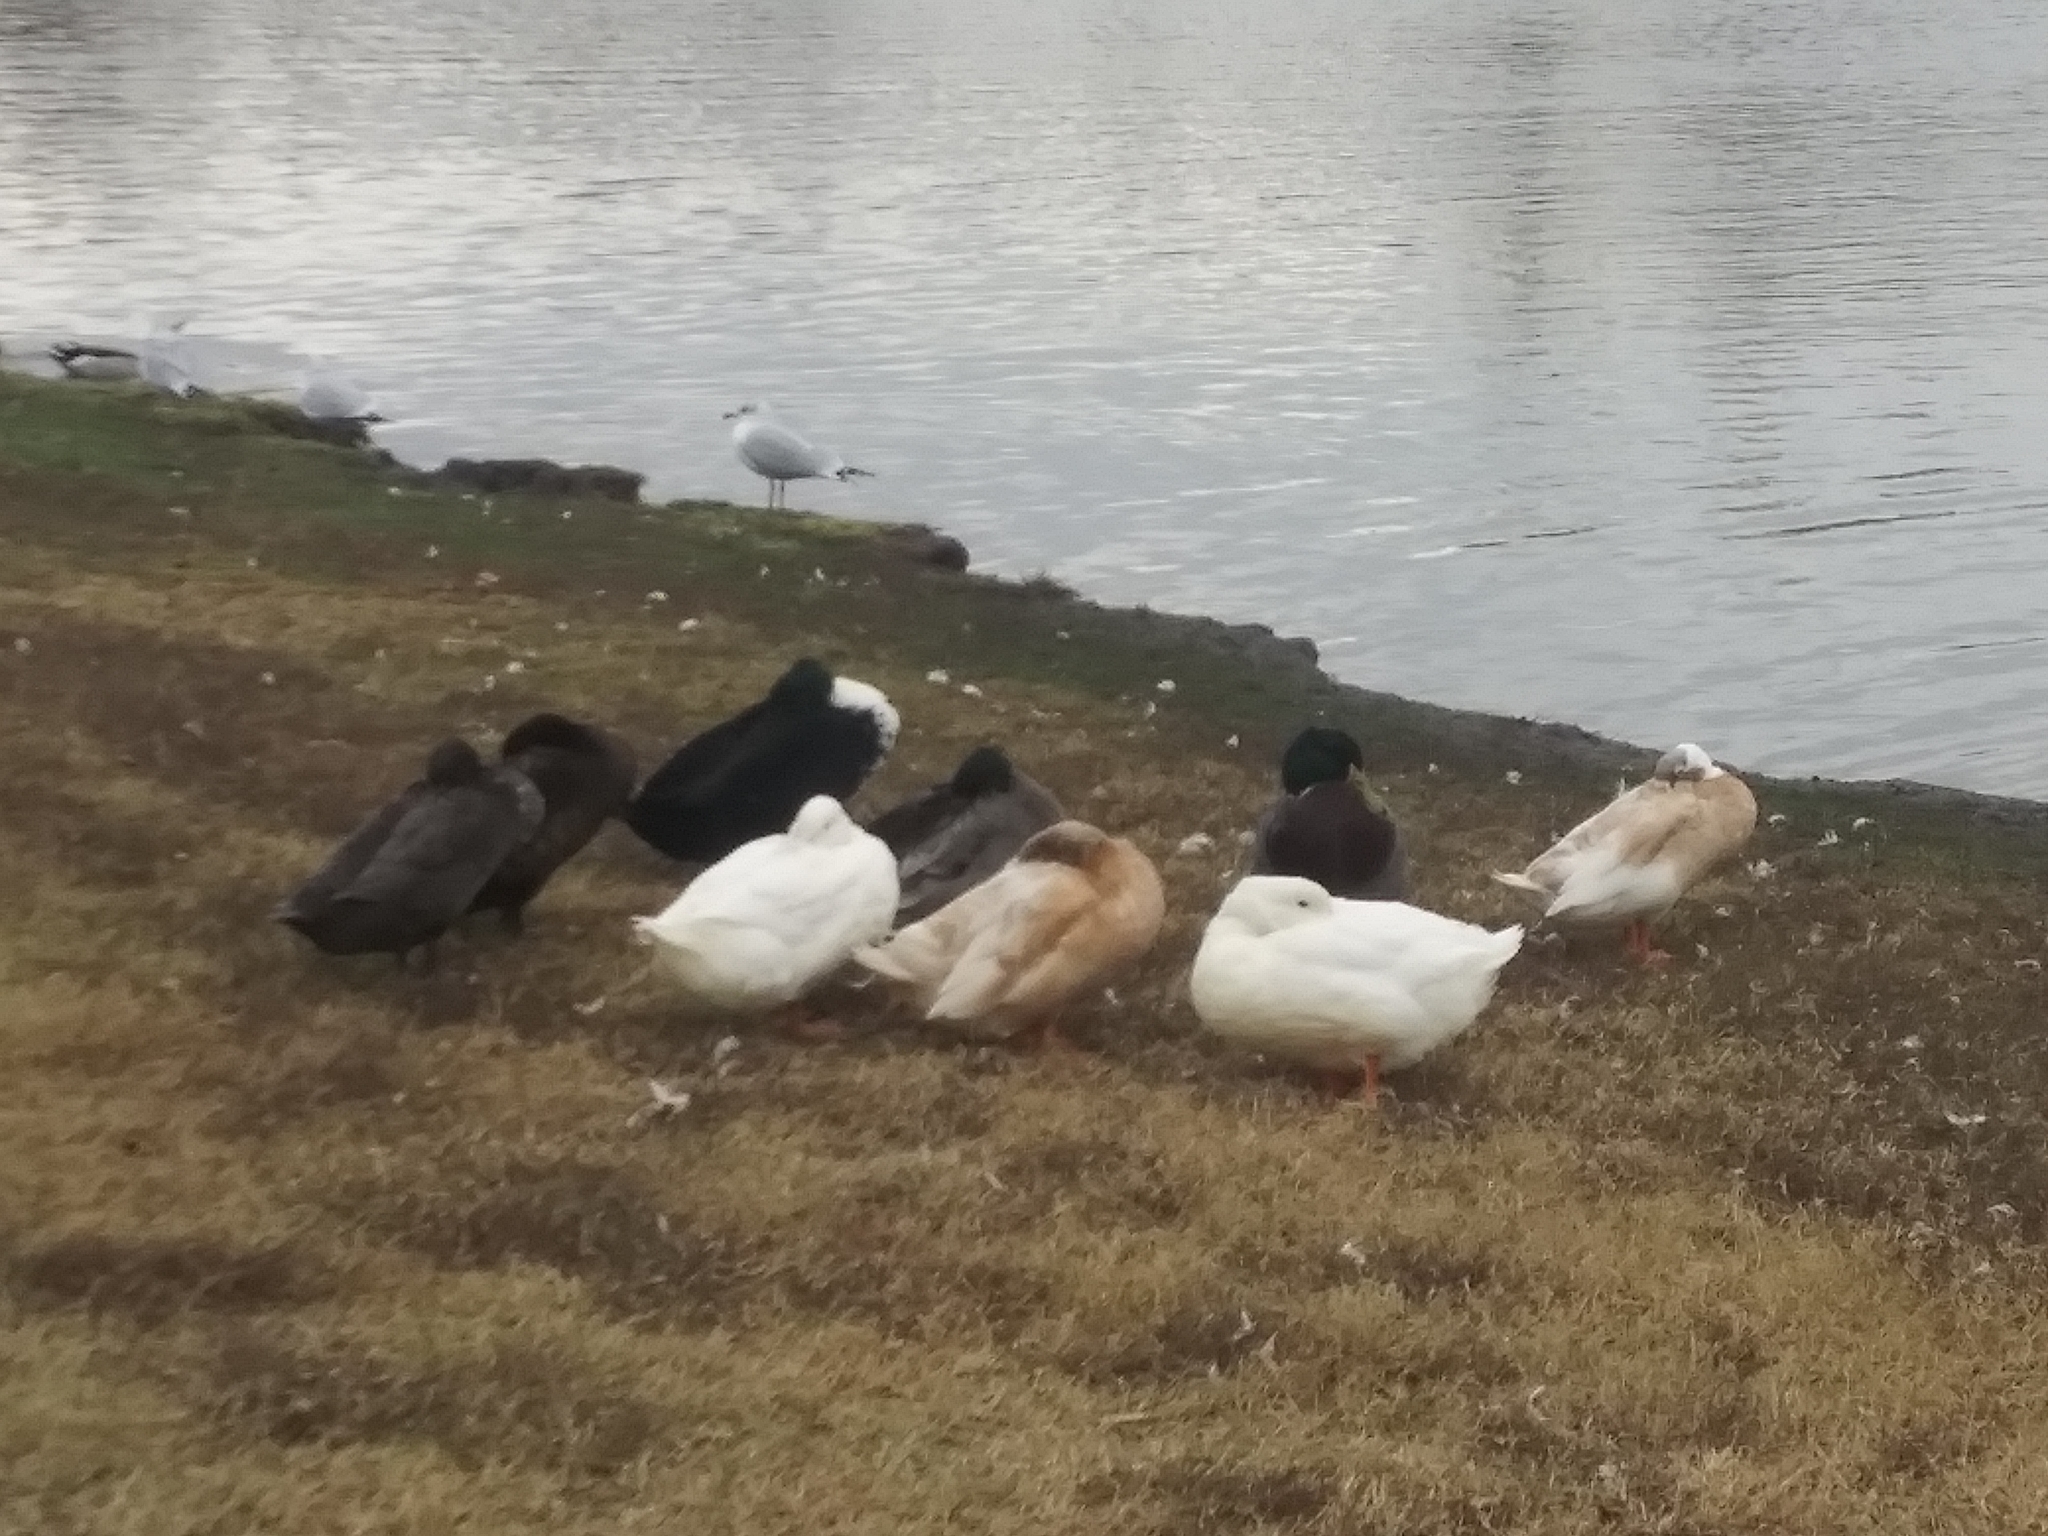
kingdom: Animalia
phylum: Chordata
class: Aves
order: Anseriformes
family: Anatidae
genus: Anas
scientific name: Anas platyrhynchos
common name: Mallard
